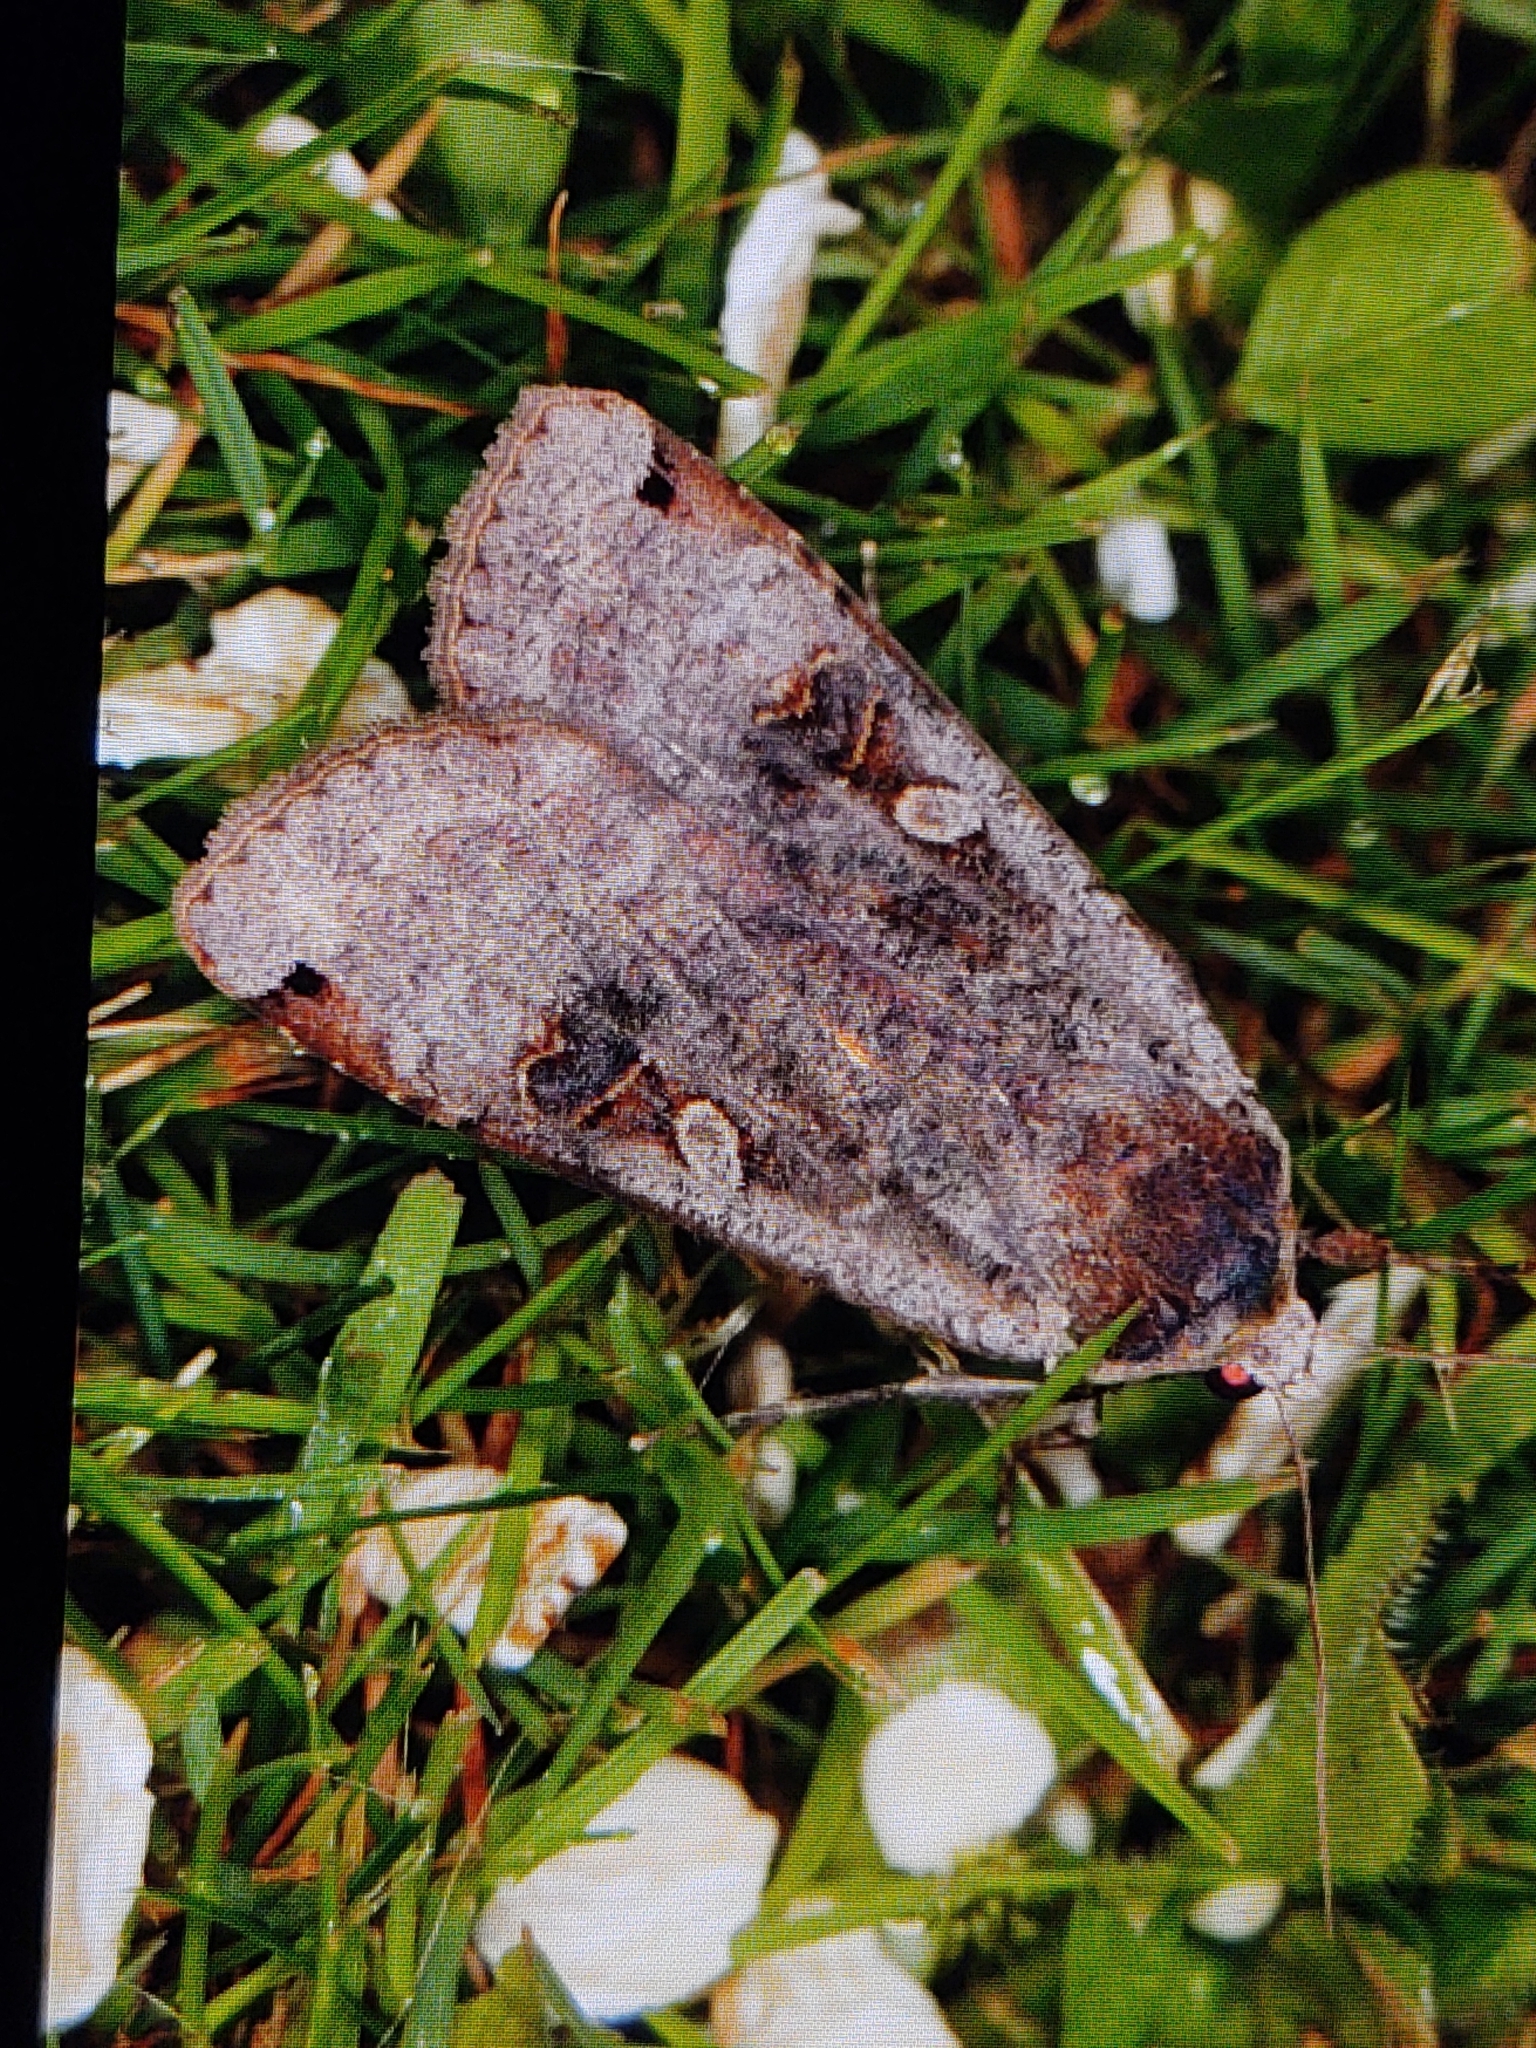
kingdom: Animalia
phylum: Arthropoda
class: Insecta
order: Lepidoptera
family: Noctuidae
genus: Noctua
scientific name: Noctua pronuba
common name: Large yellow underwing
